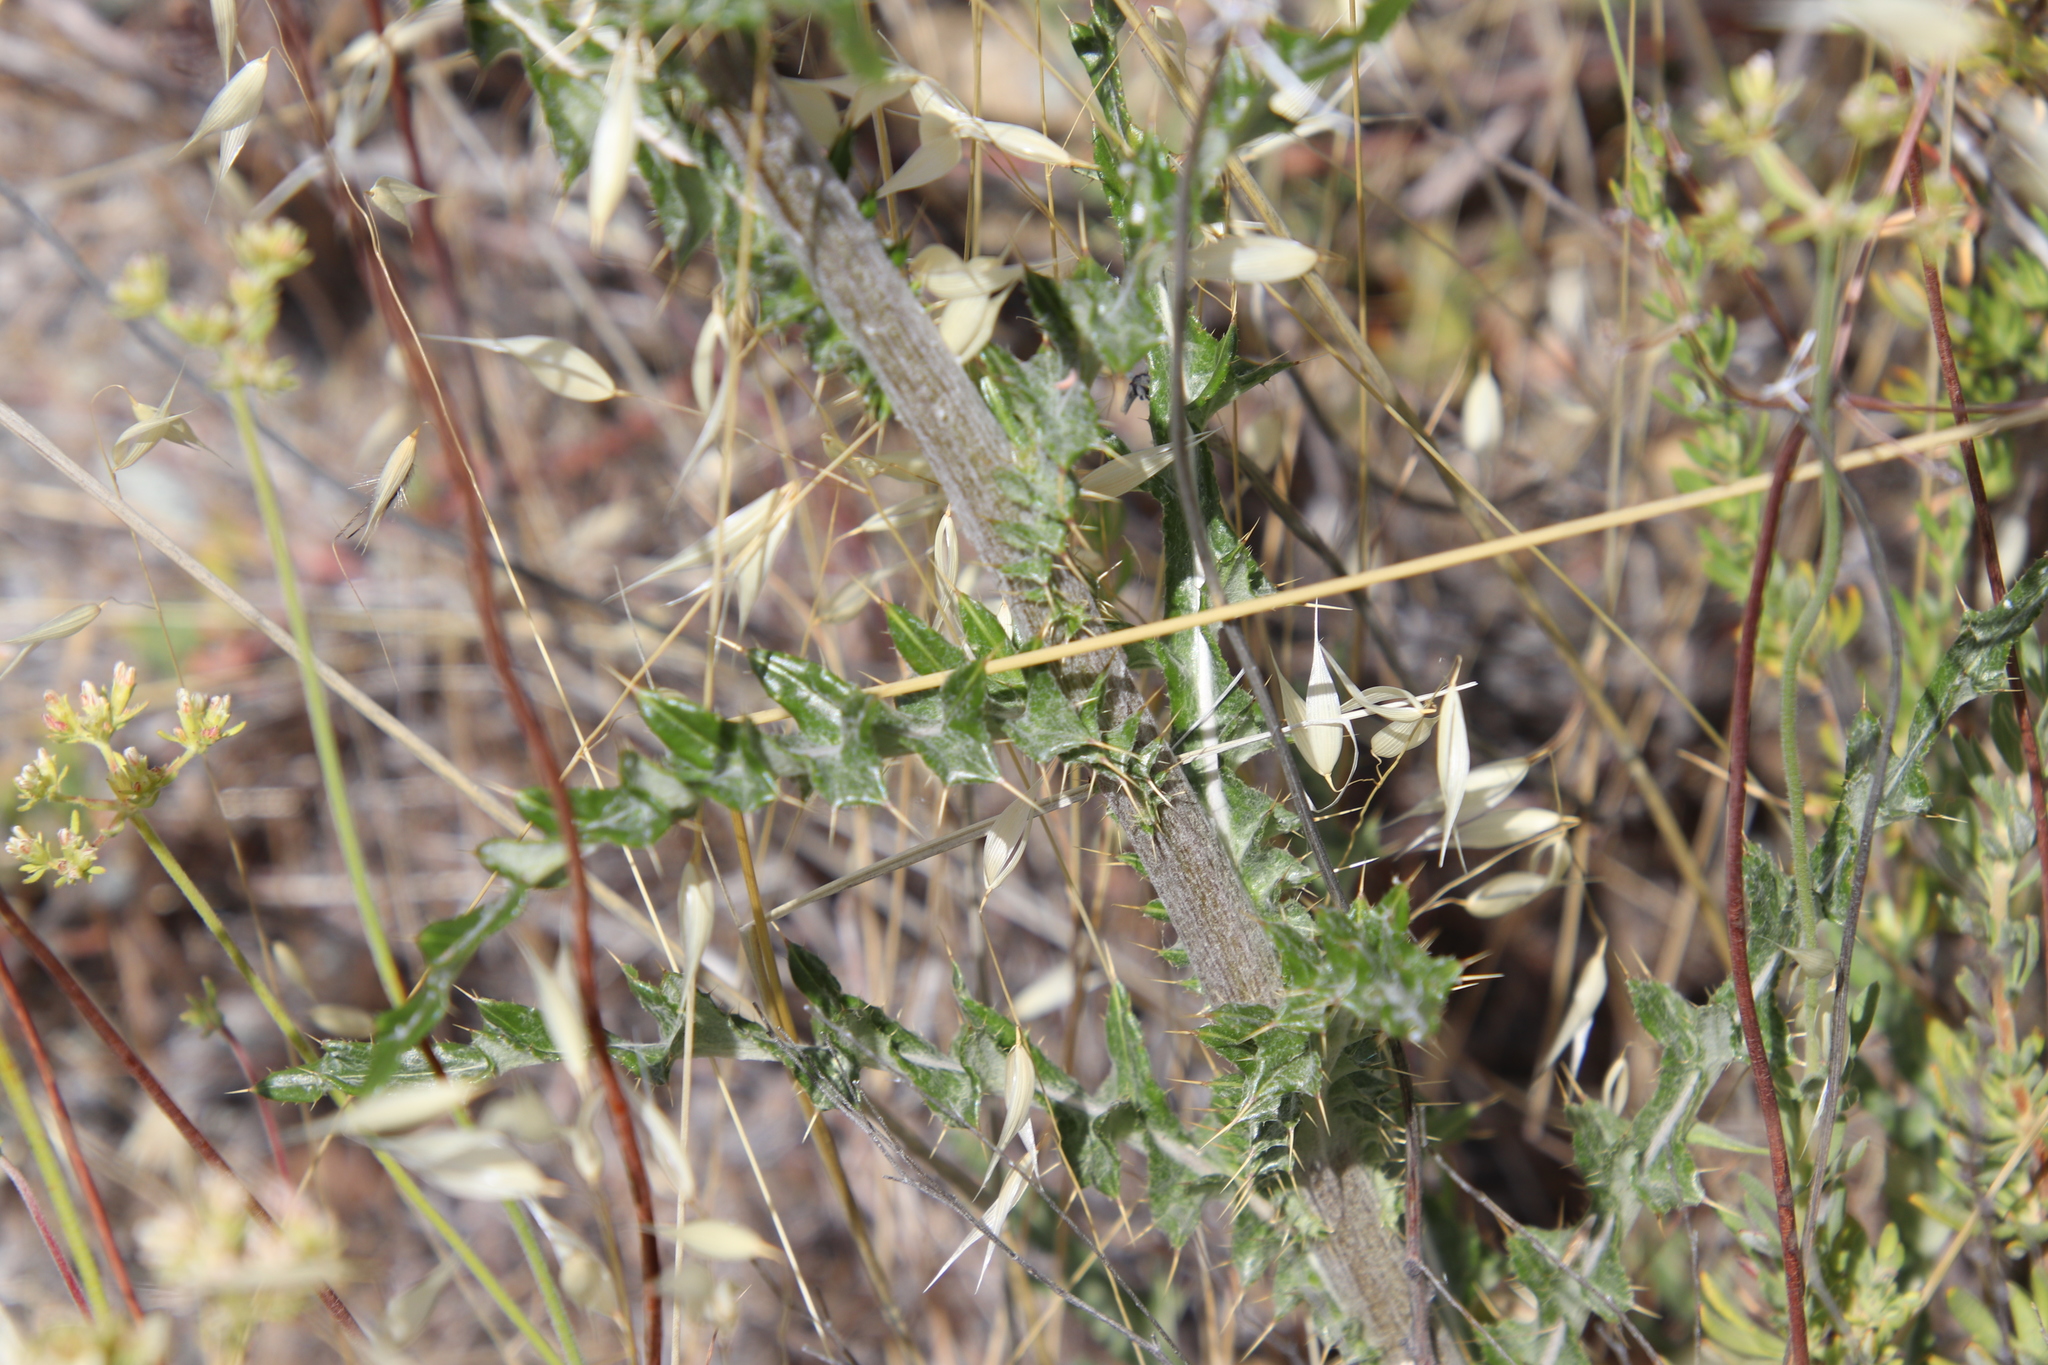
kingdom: Plantae
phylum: Tracheophyta
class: Magnoliopsida
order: Asterales
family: Asteraceae
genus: Cirsium
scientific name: Cirsium occidentale
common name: Western thistle
